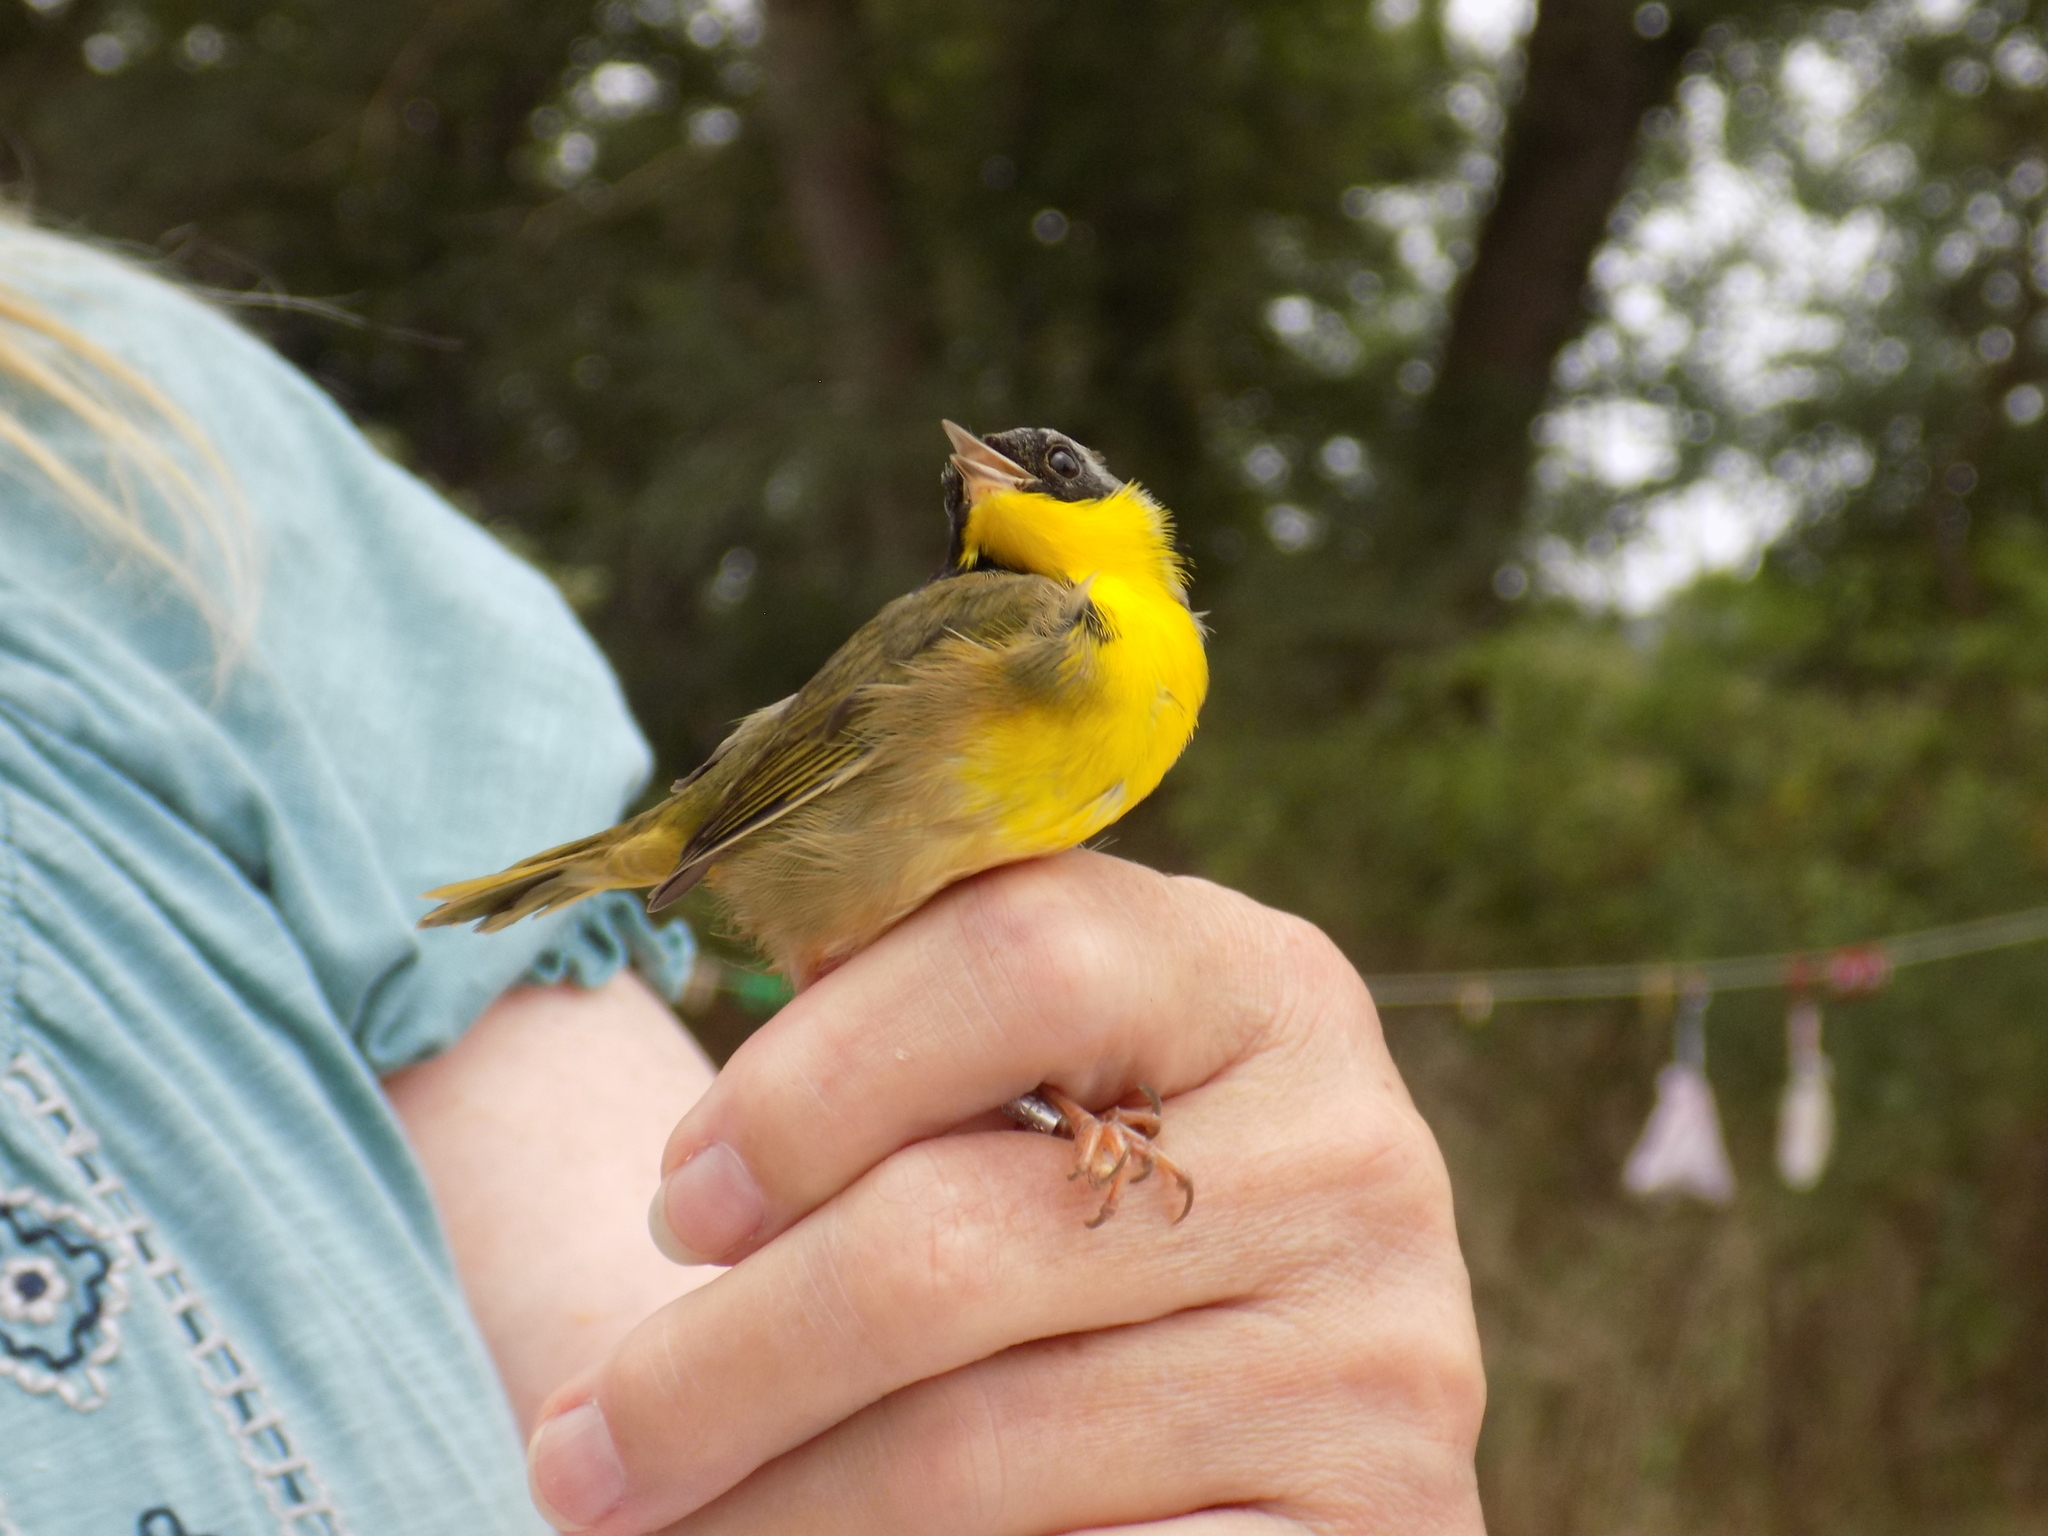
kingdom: Animalia
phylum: Chordata
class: Aves
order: Passeriformes
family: Parulidae
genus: Geothlypis
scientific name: Geothlypis trichas
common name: Common yellowthroat
